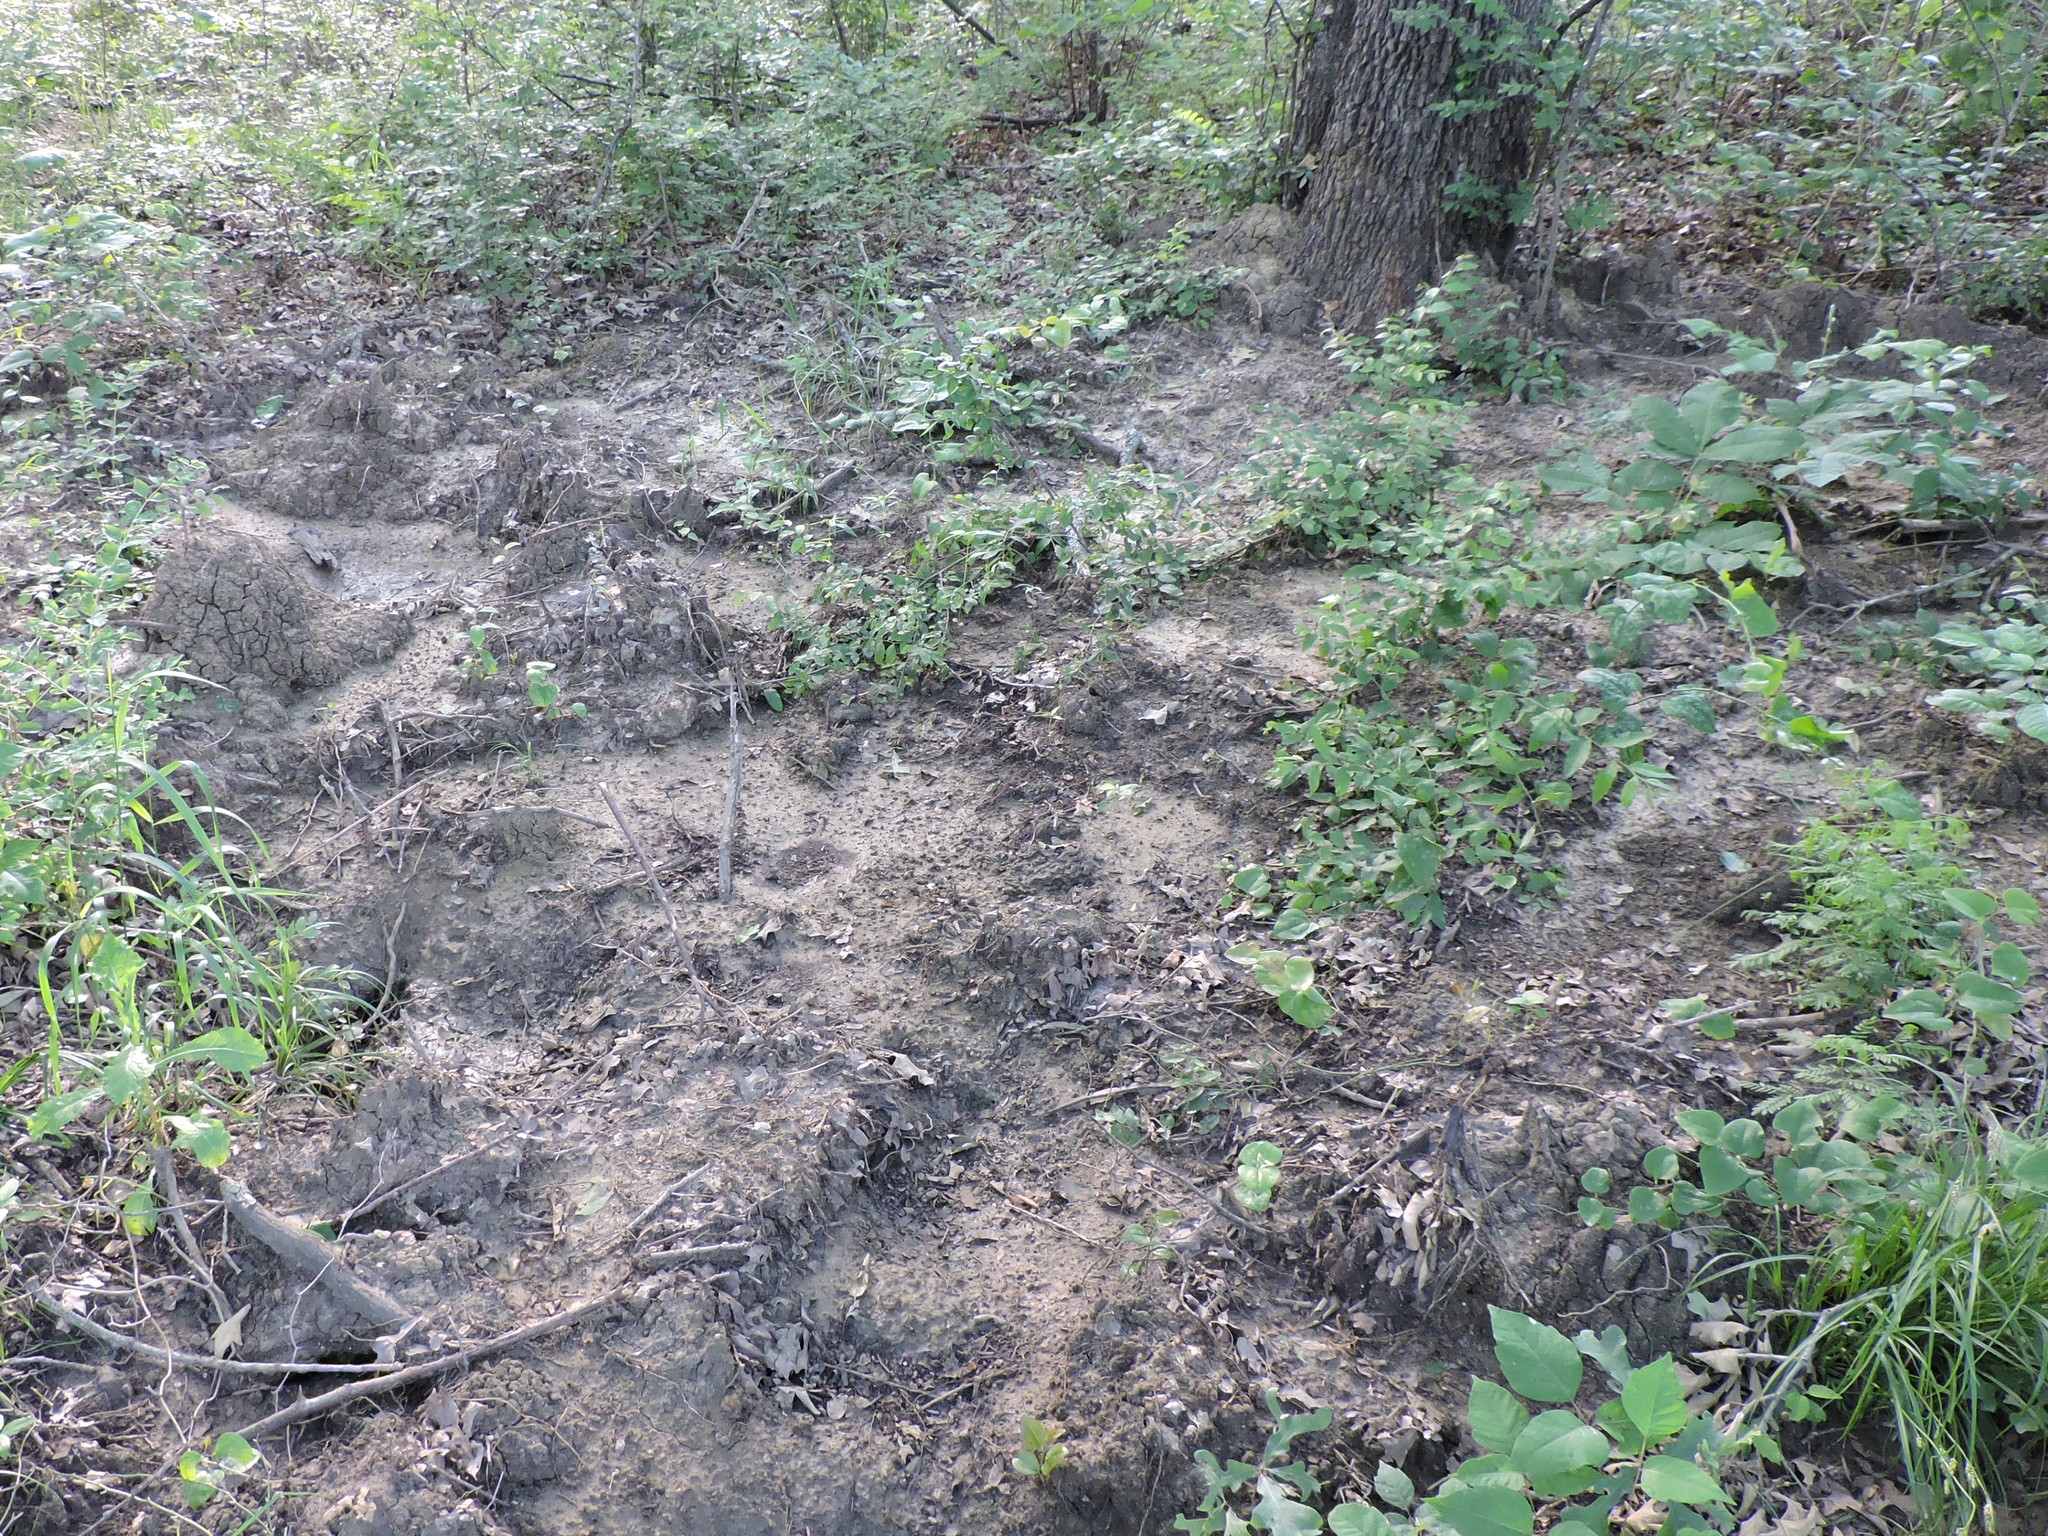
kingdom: Animalia
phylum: Chordata
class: Mammalia
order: Artiodactyla
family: Suidae
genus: Sus
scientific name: Sus scrofa
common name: Wild boar
